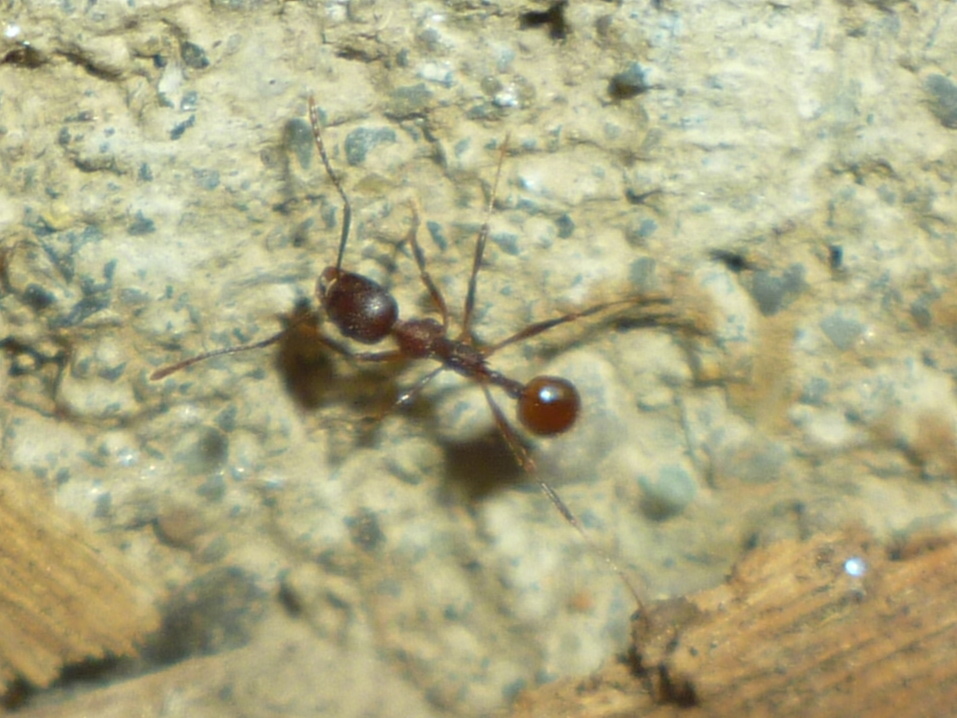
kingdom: Animalia
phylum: Arthropoda
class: Insecta
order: Hymenoptera
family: Formicidae
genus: Aphaenogaster
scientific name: Aphaenogaster fulva
